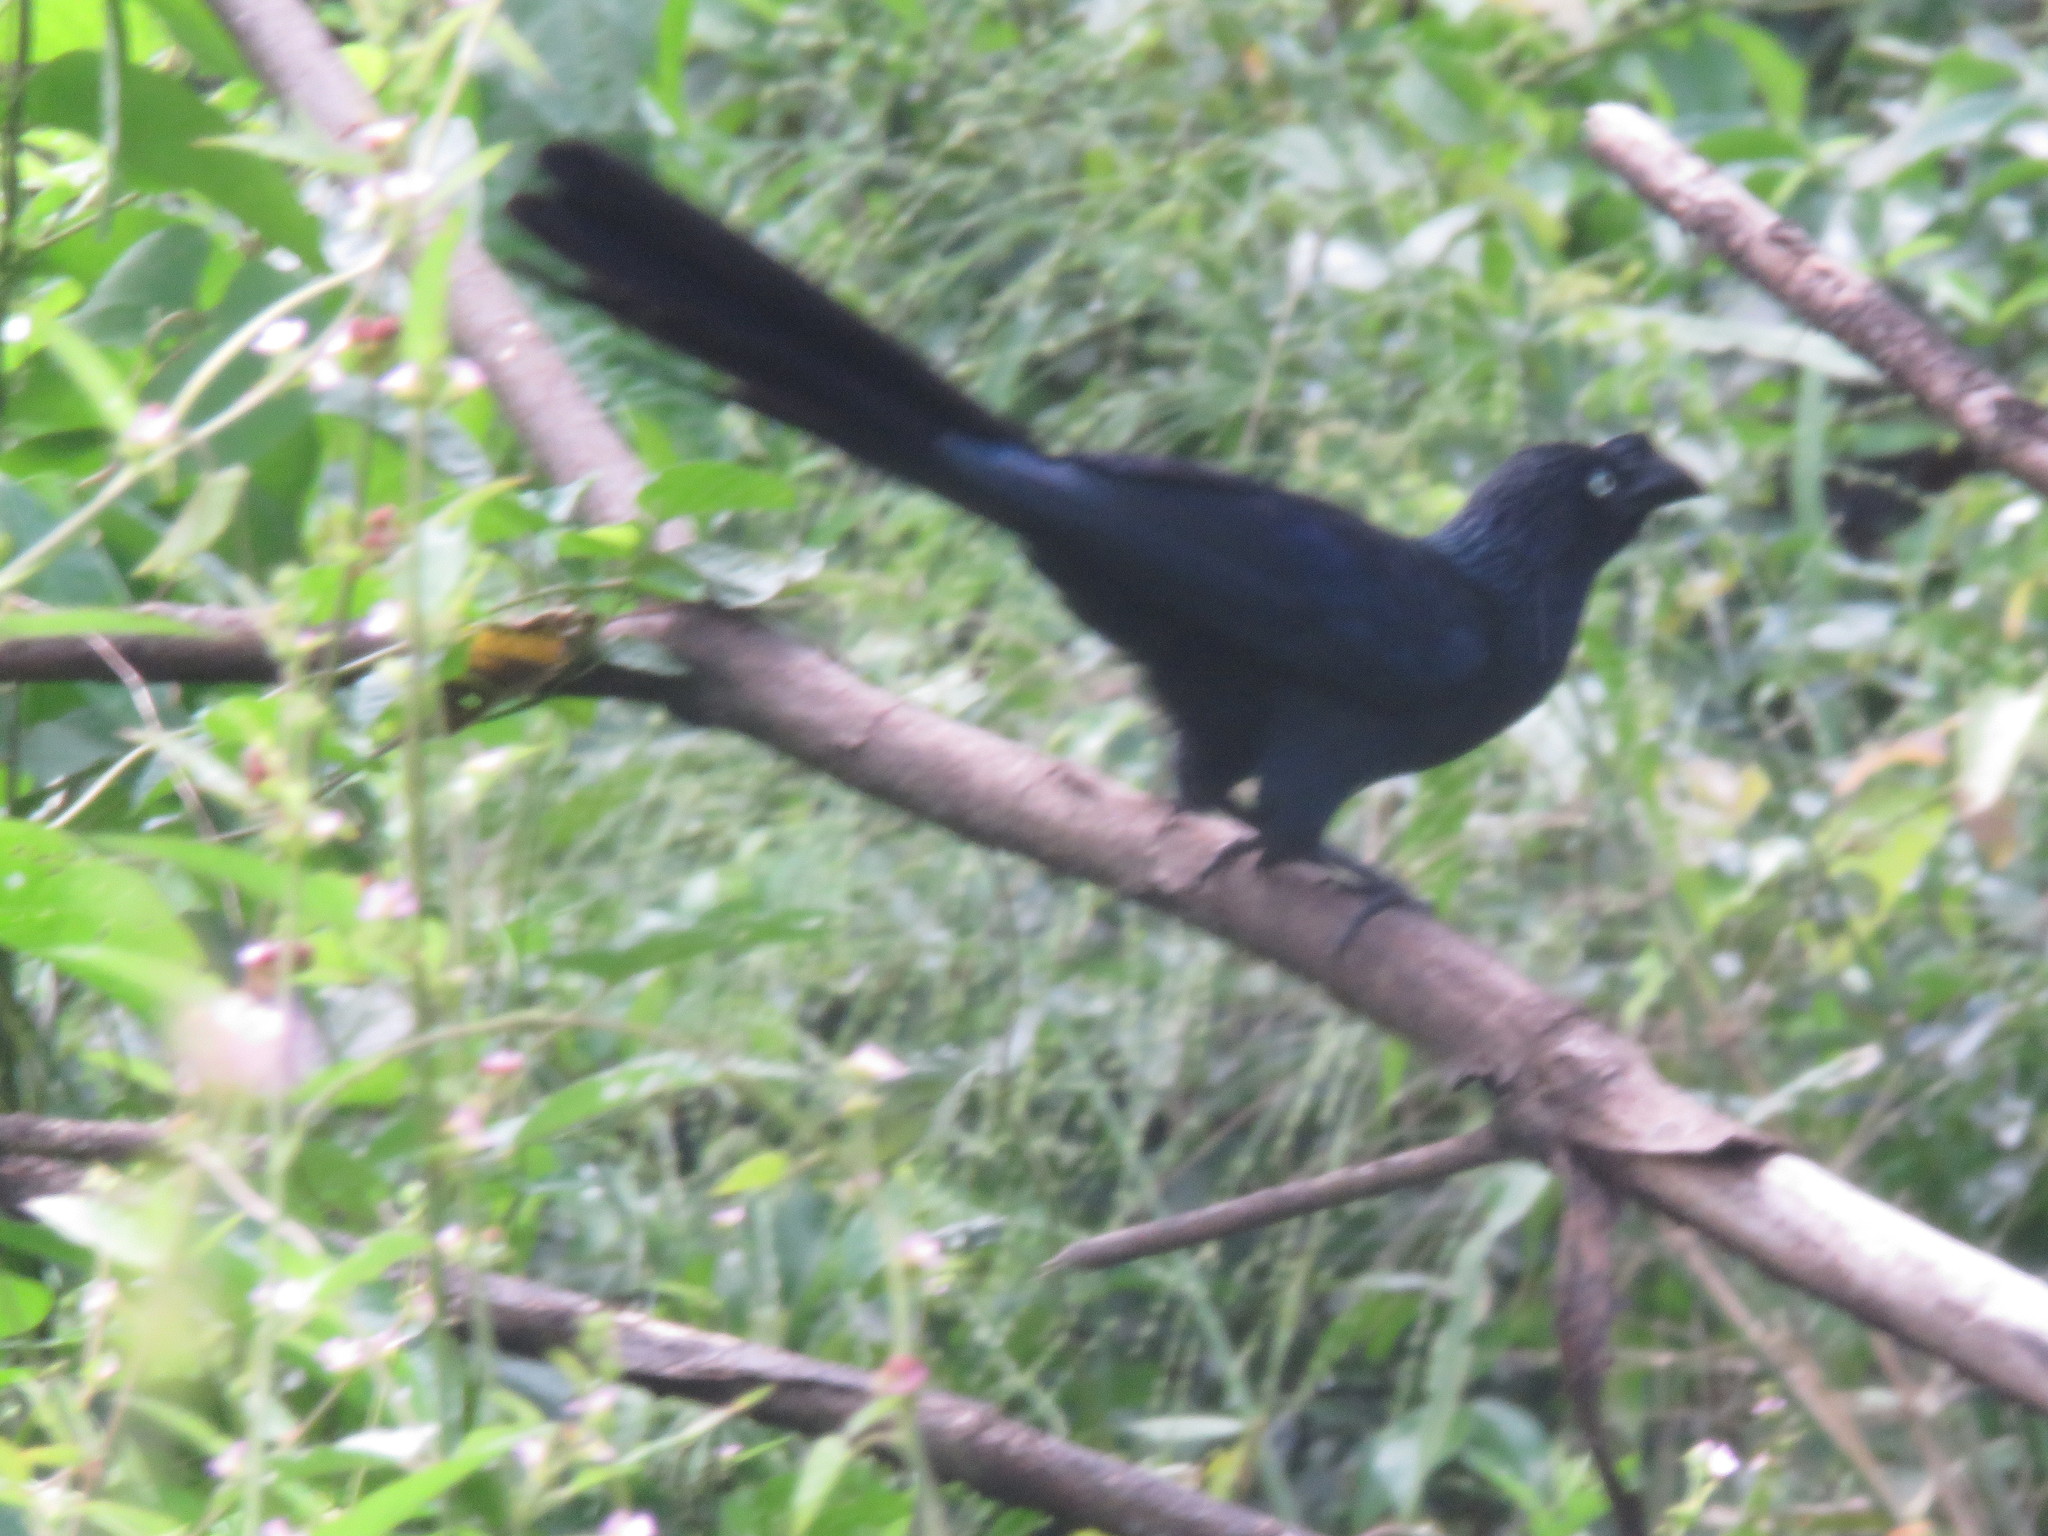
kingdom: Animalia
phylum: Chordata
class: Aves
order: Cuculiformes
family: Cuculidae
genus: Crotophaga
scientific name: Crotophaga major
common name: Greater ani
